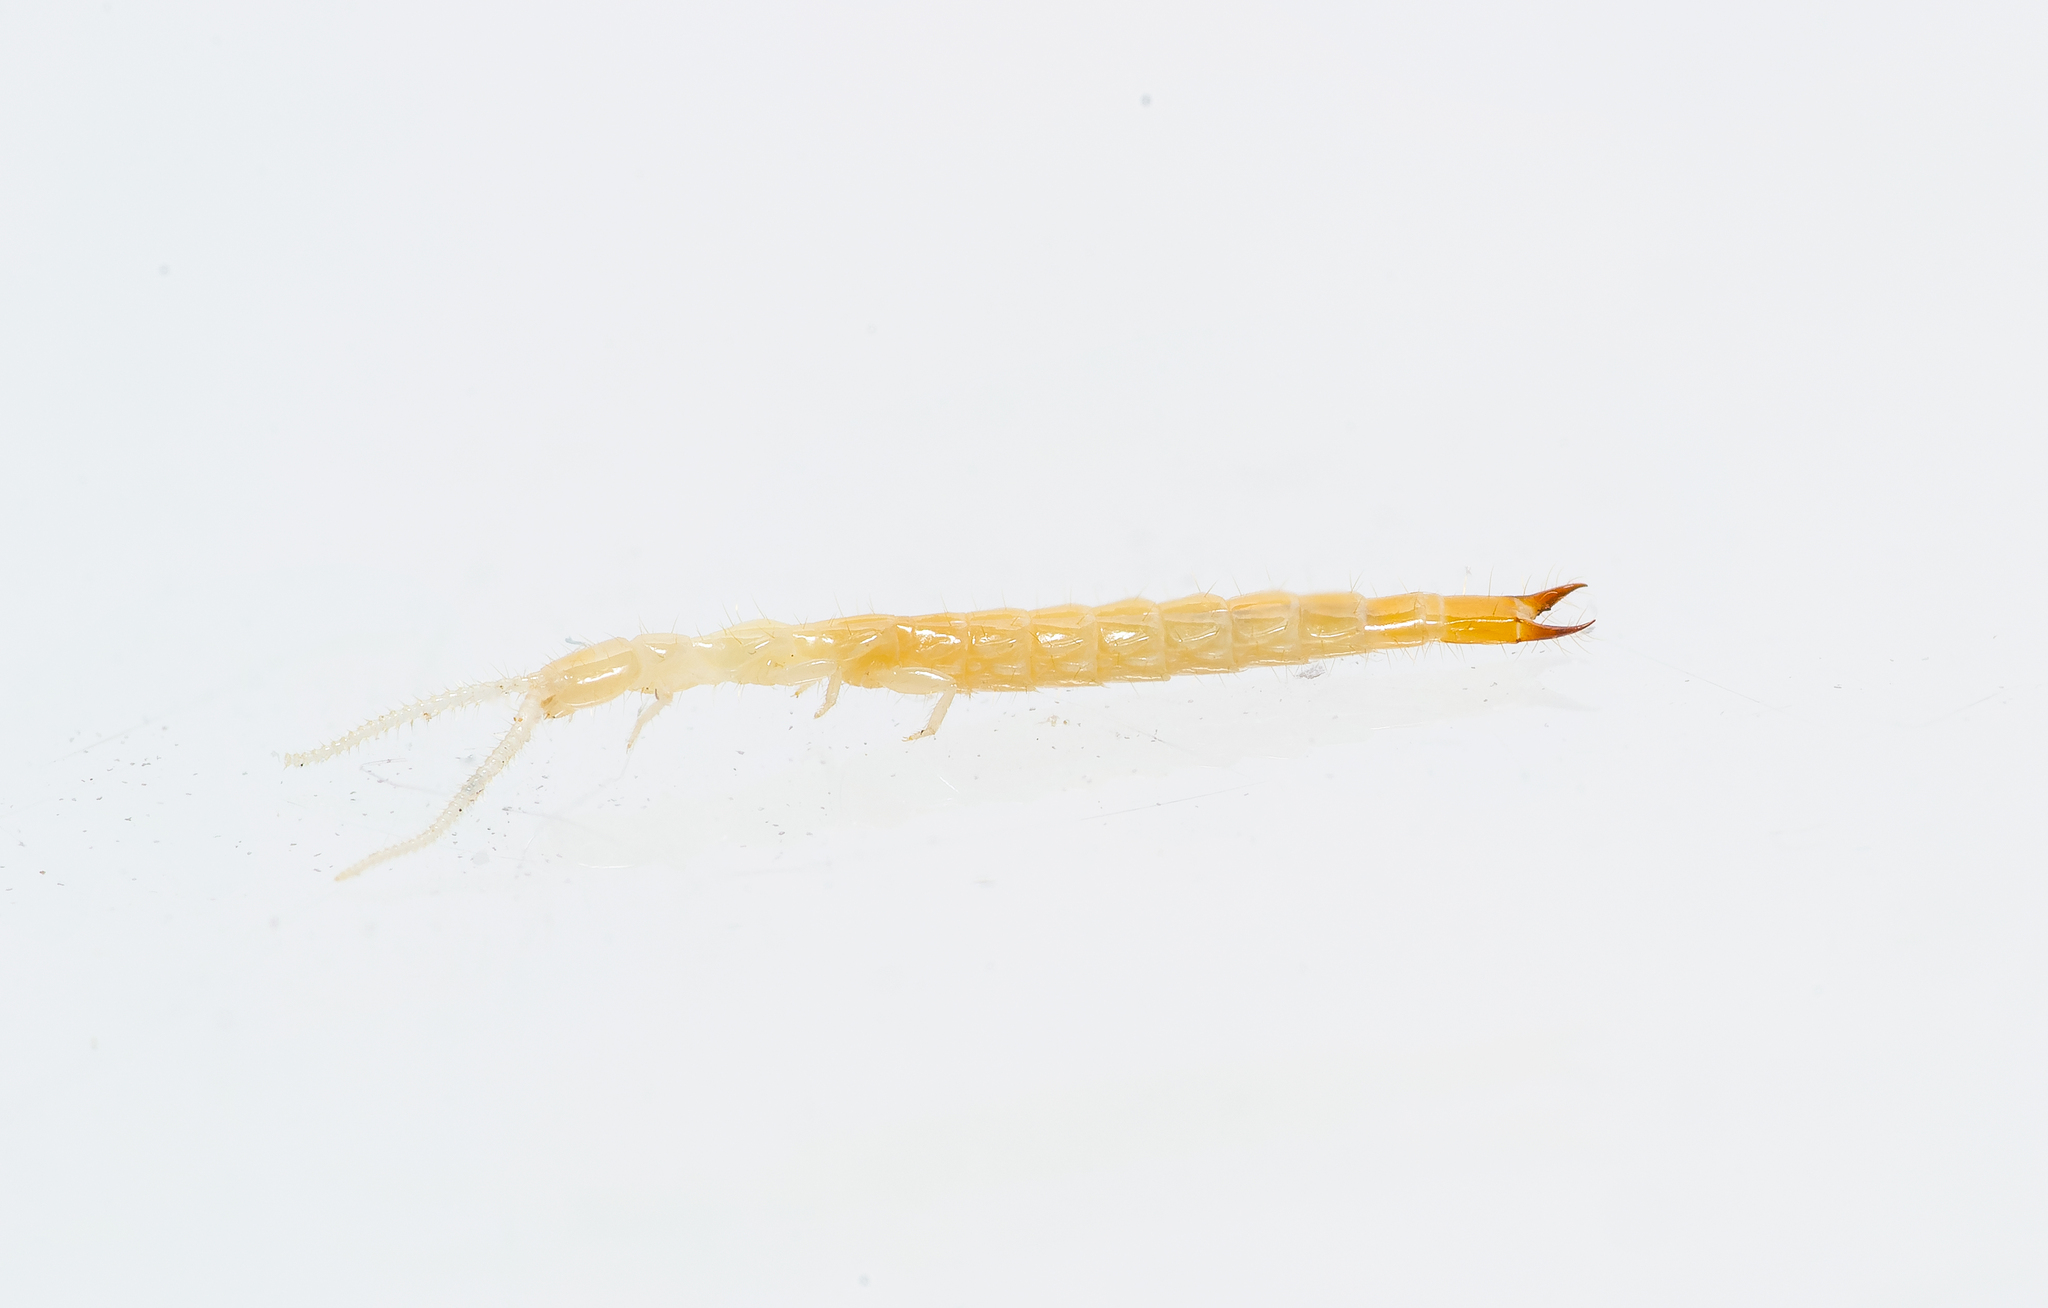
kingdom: Animalia
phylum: Arthropoda
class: Diplura
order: Diplura
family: Japygidae
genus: Japyx
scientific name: Japyx solifugus
